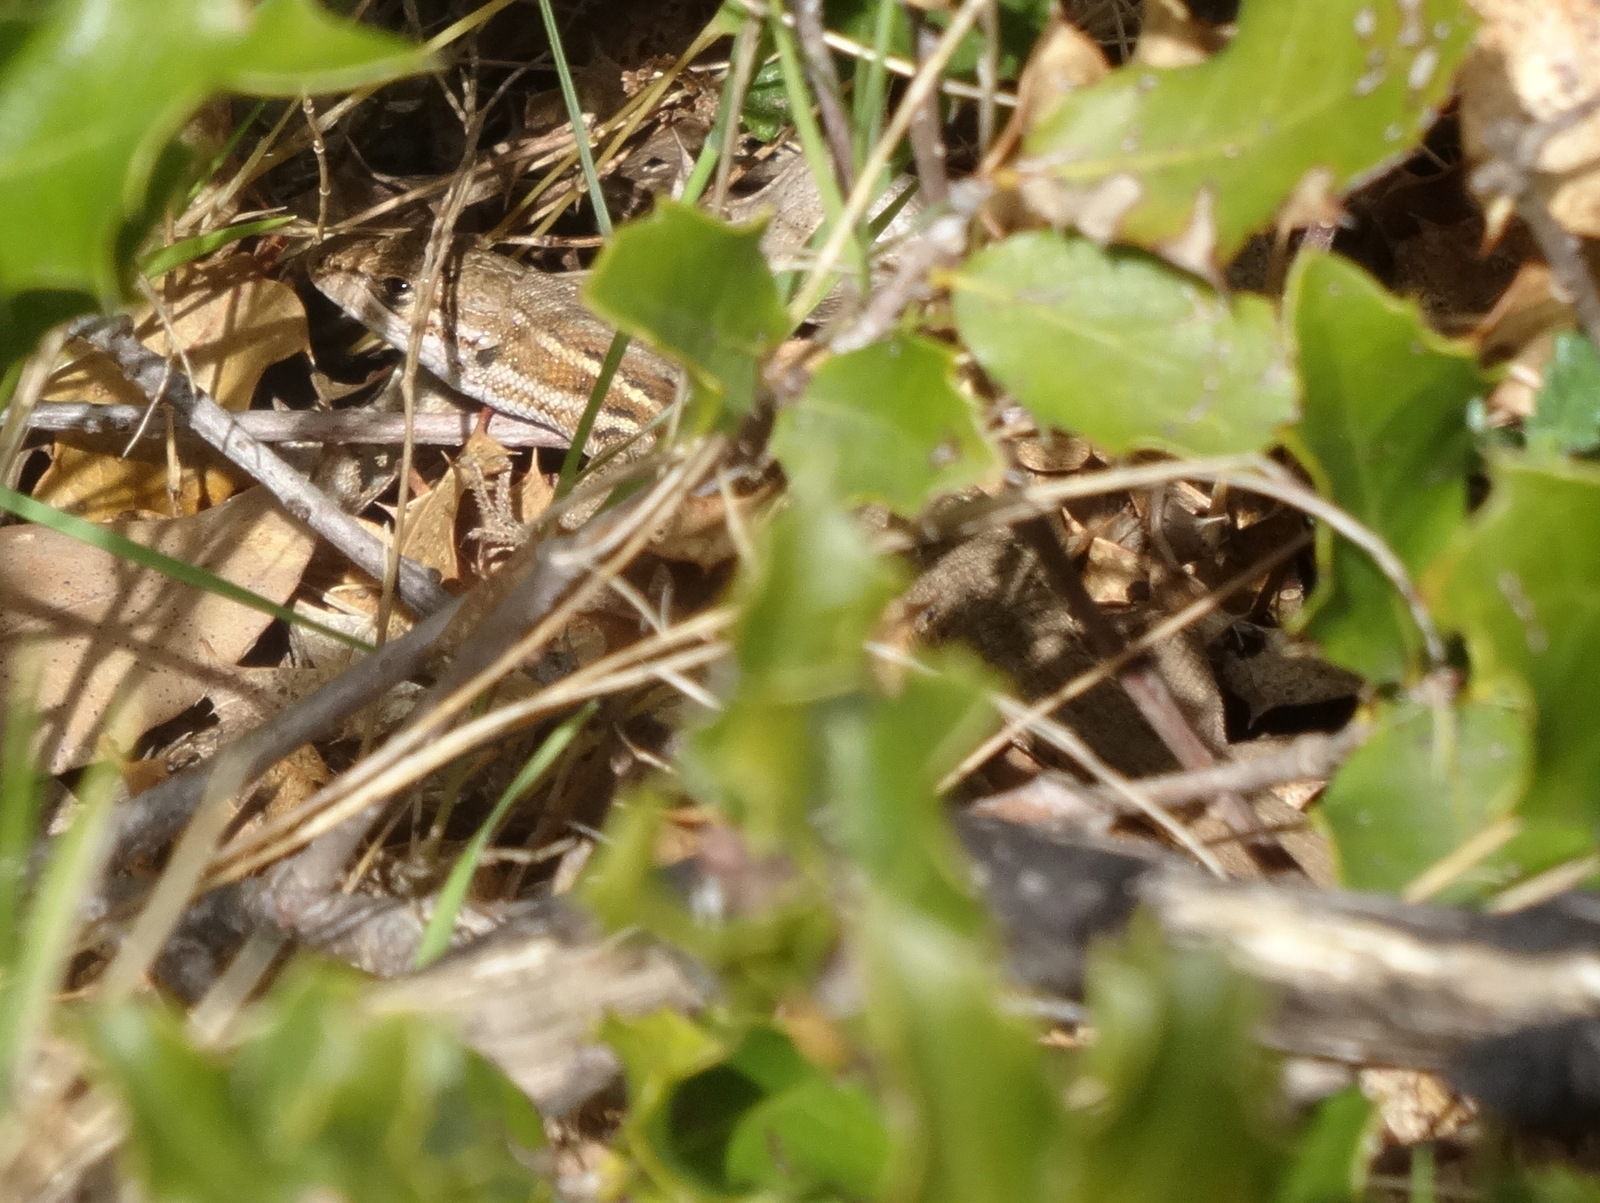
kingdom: Animalia
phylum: Chordata
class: Squamata
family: Lacertidae
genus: Psammodromus
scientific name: Psammodromus edwarsianus
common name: East iberian psammodromus
